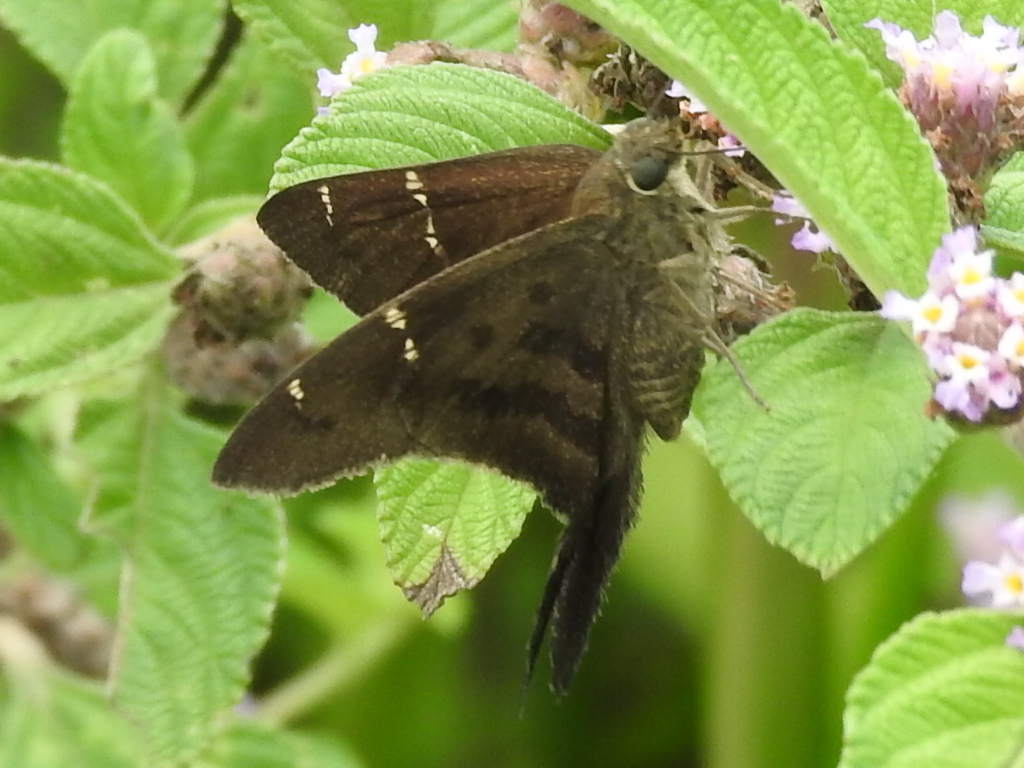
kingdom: Animalia
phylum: Arthropoda
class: Insecta
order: Lepidoptera
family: Hesperiidae
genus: Urbanus
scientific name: Urbanus procne
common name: Brown longtail
